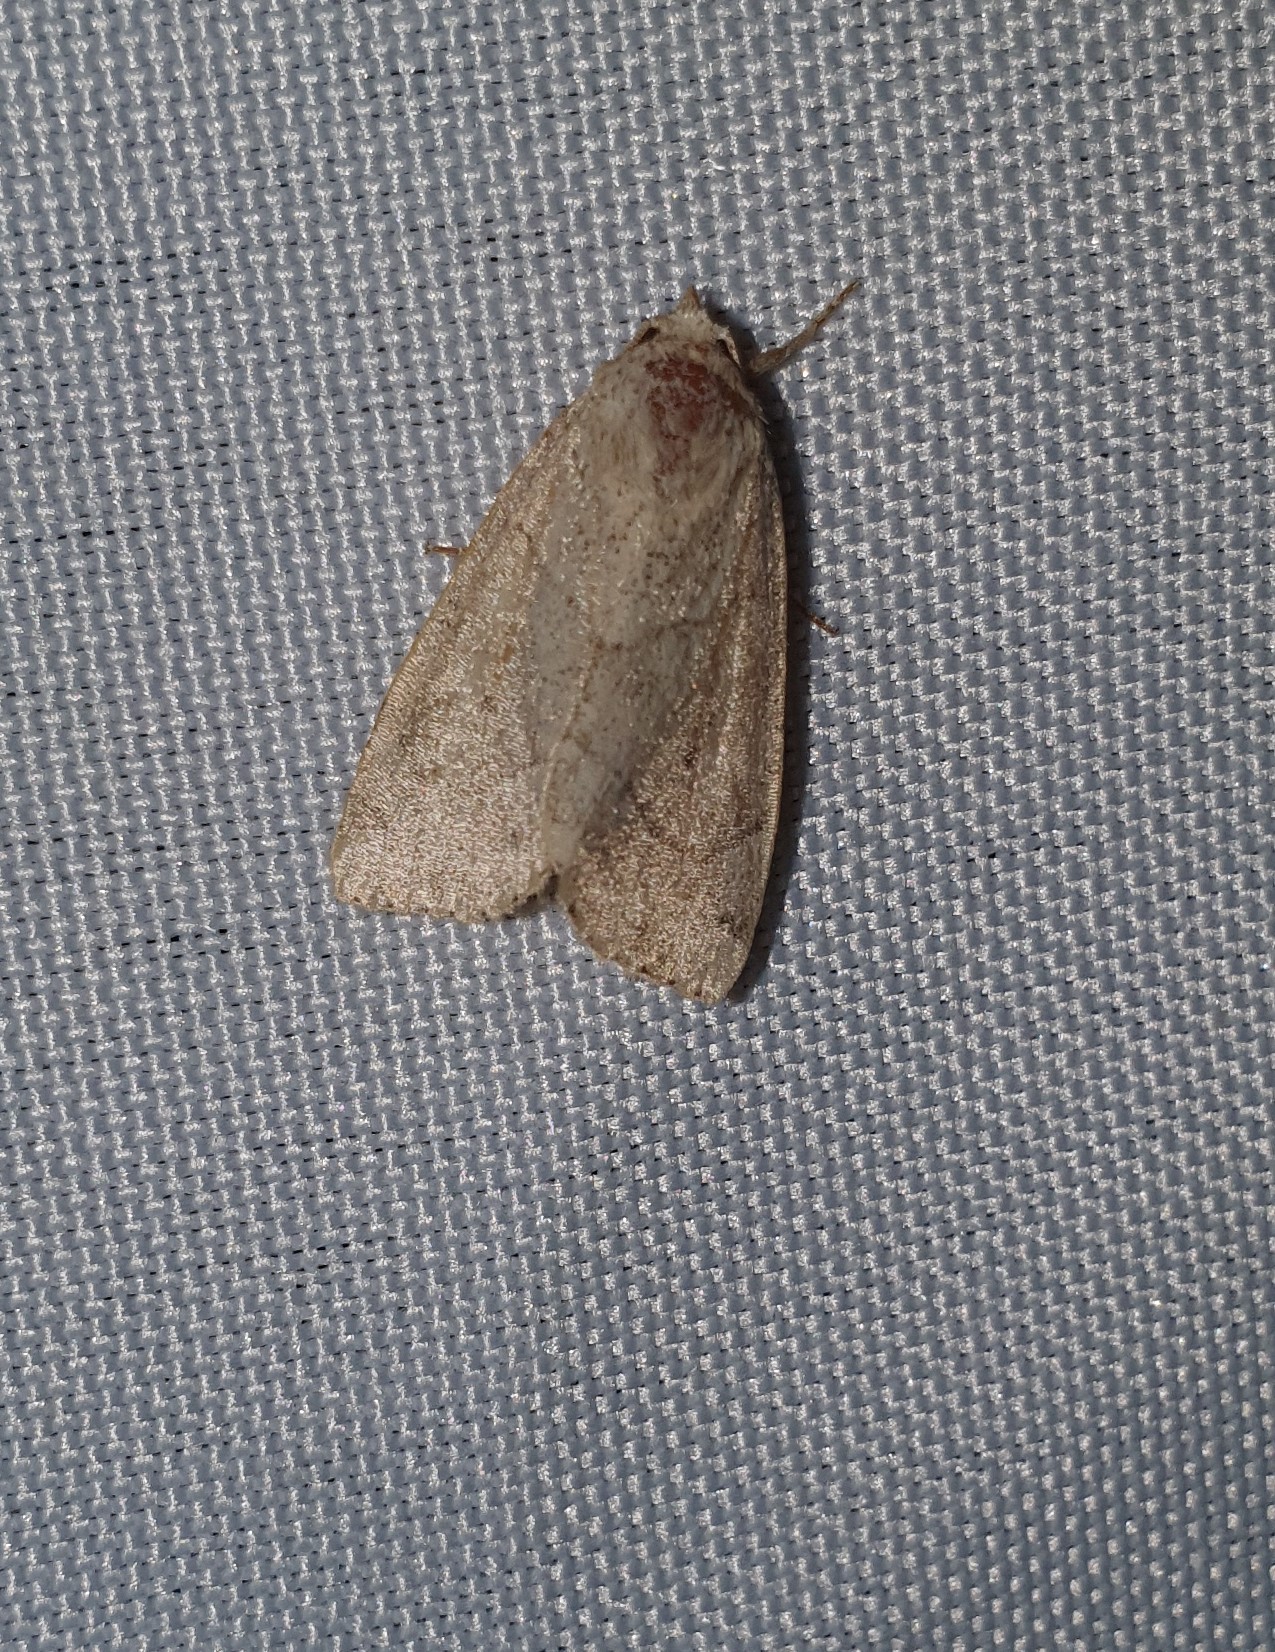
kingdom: Animalia
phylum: Arthropoda
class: Insecta
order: Lepidoptera
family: Noctuidae
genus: Cosmia
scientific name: Cosmia trapezina
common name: Dun-bar
